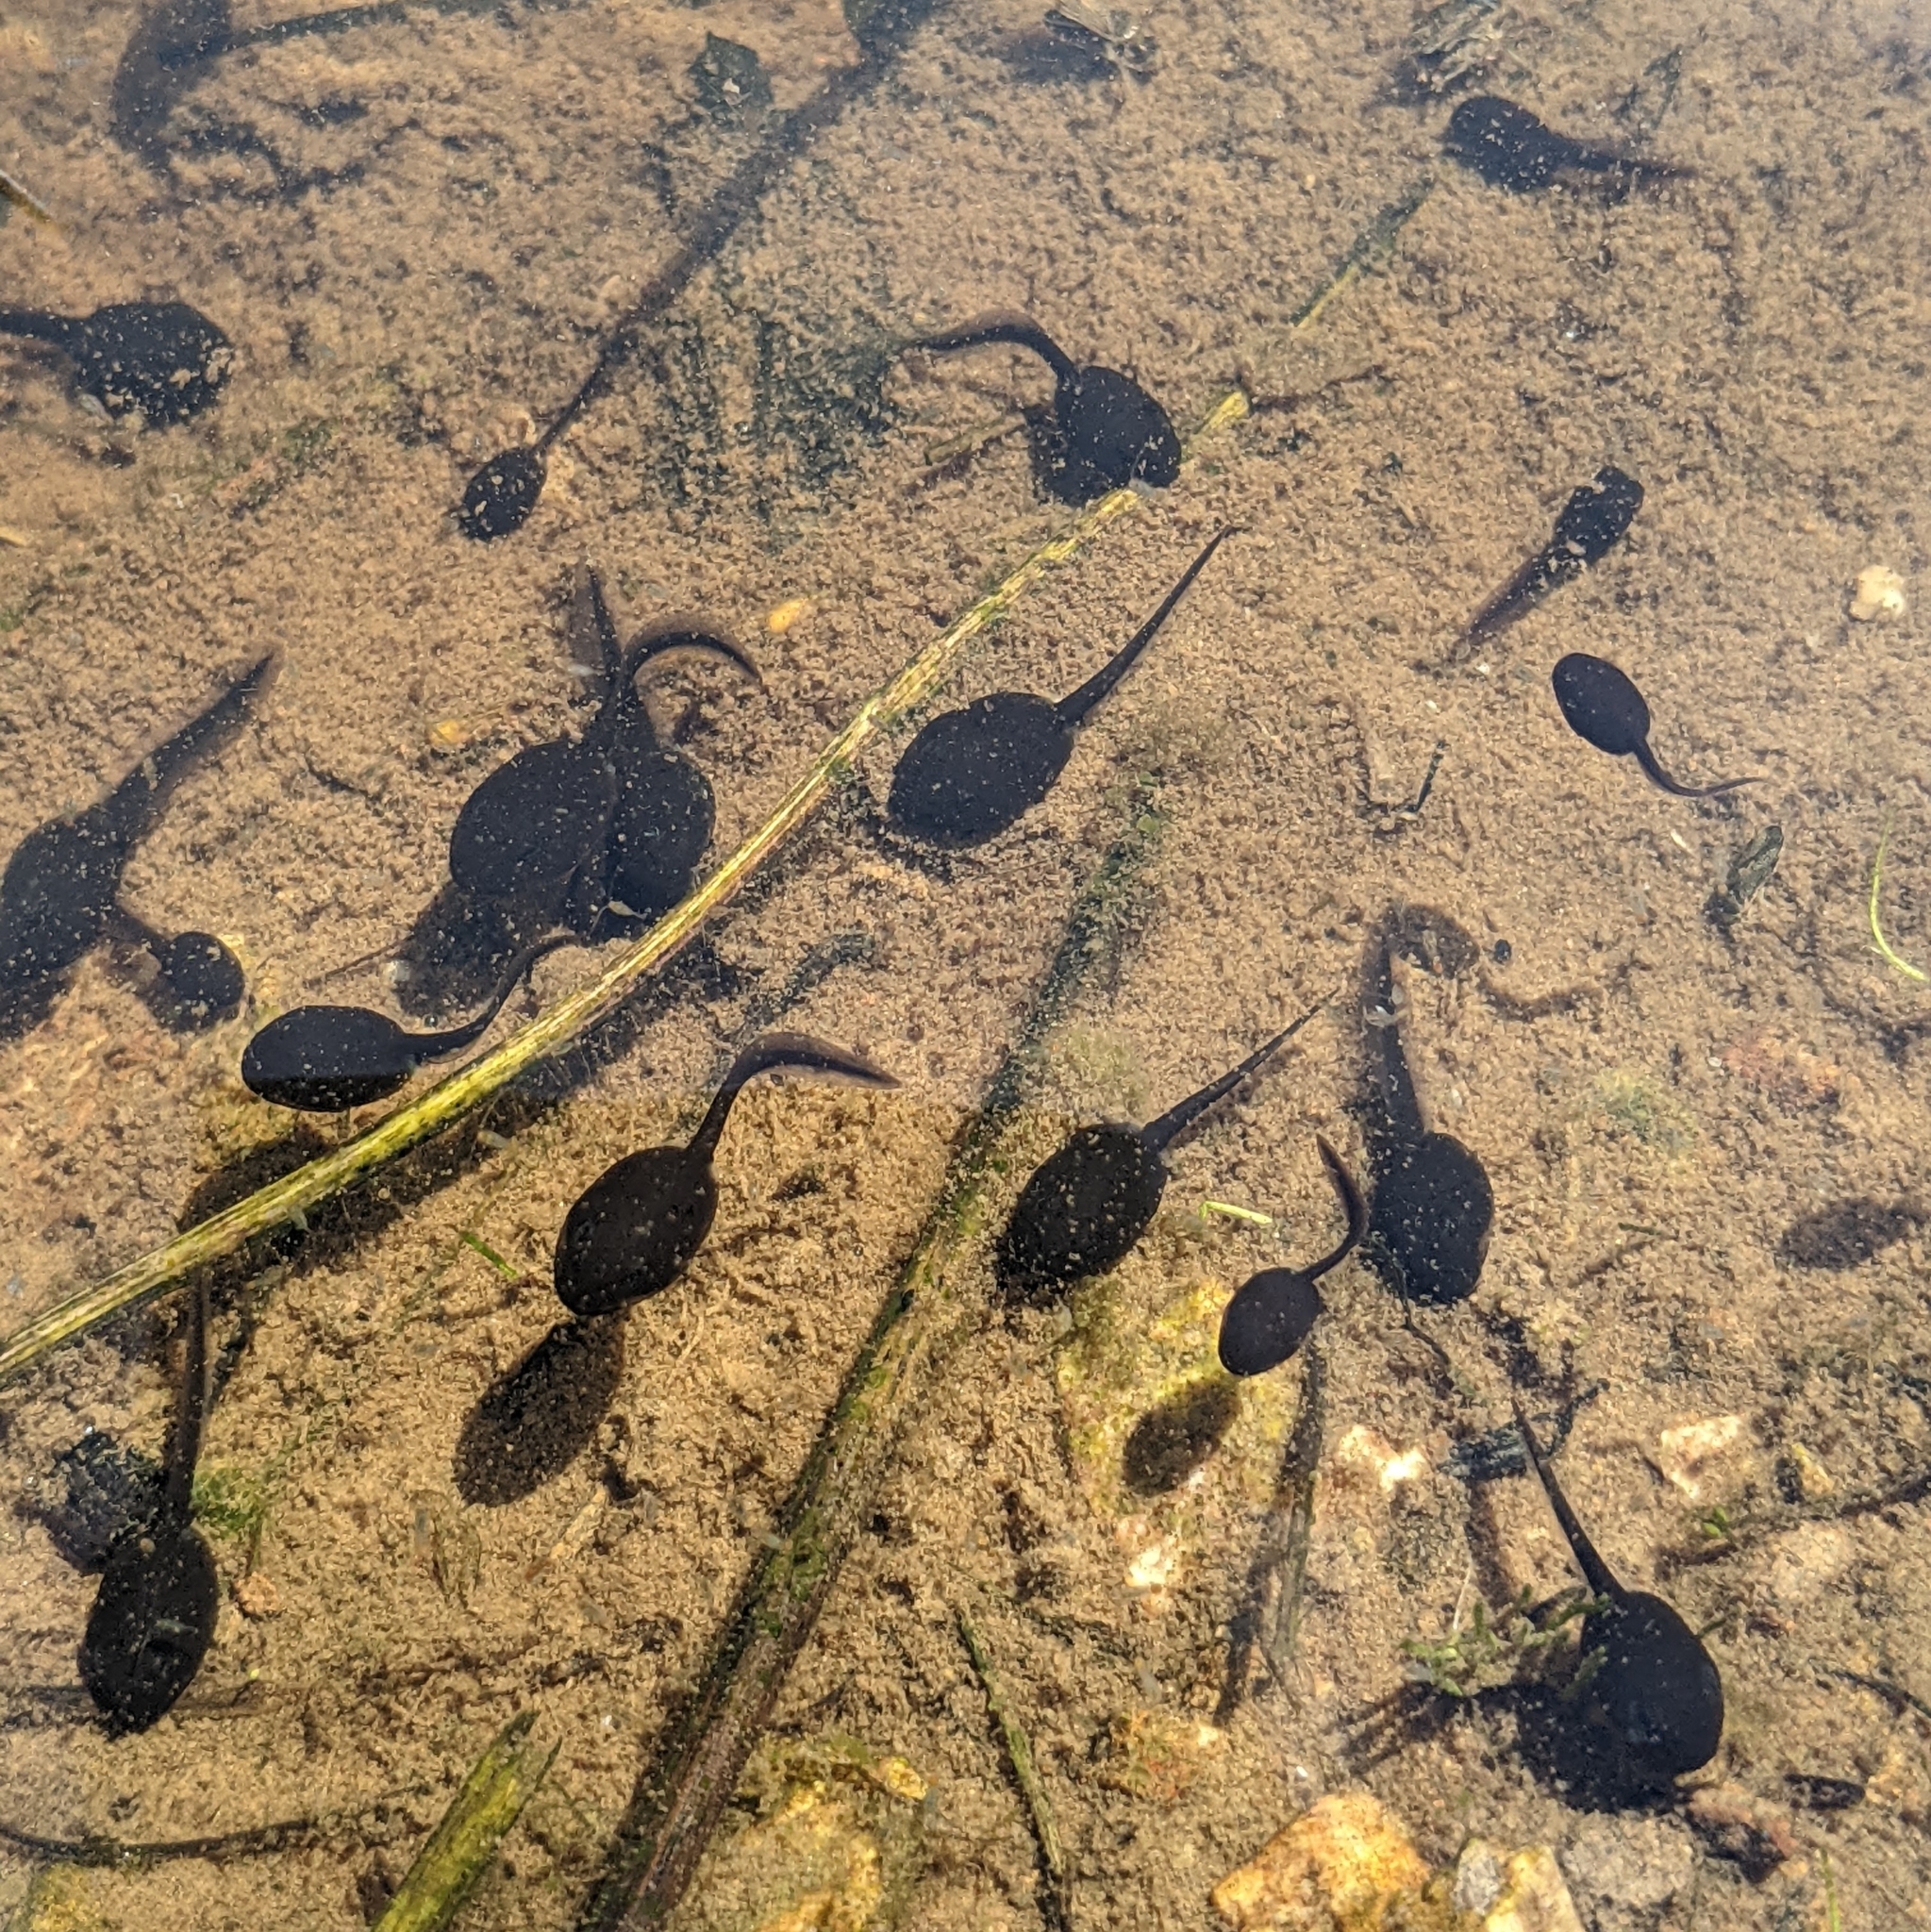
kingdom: Animalia
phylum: Chordata
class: Amphibia
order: Anura
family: Bufonidae
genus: Anaxyrus
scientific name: Anaxyrus boreas
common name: Western toad
